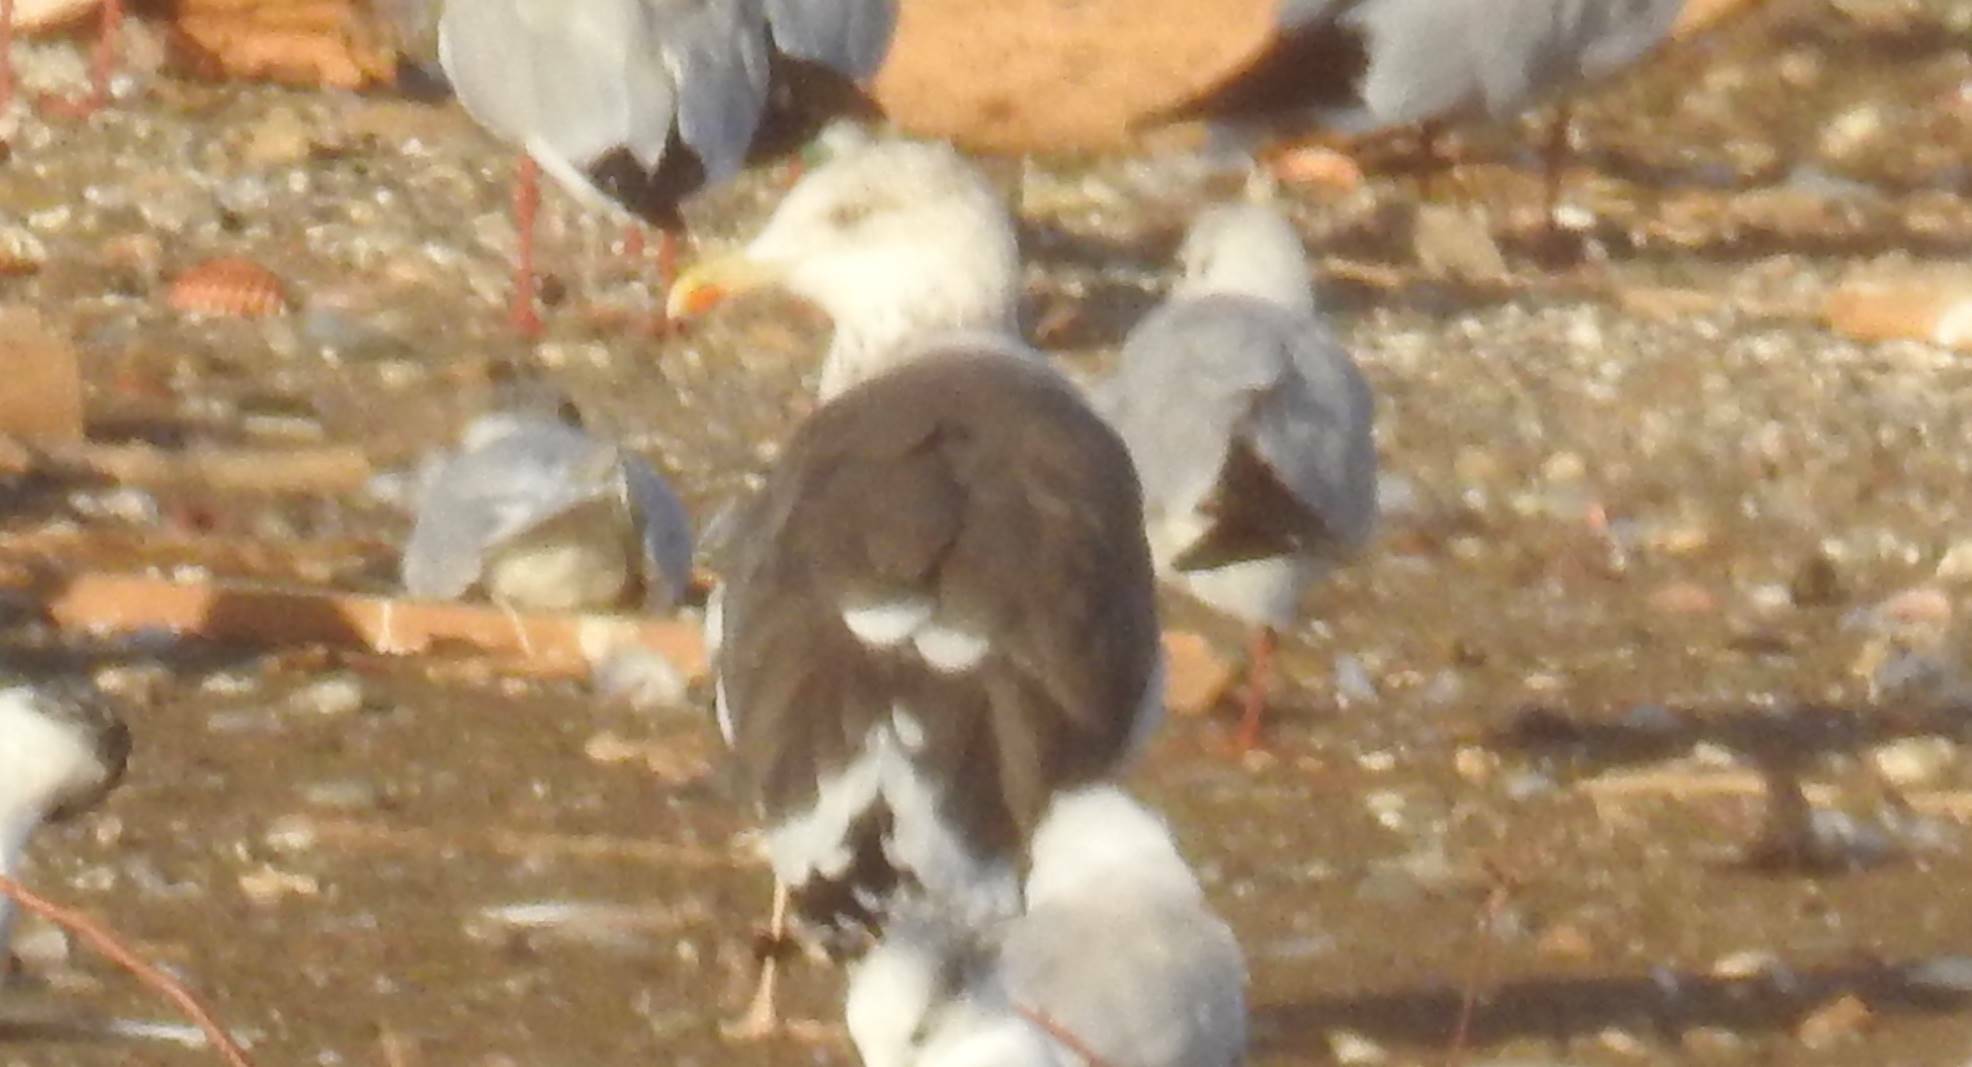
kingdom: Animalia
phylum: Chordata
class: Aves
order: Charadriiformes
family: Laridae
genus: Larus
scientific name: Larus fuscus
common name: Lesser black-backed gull
